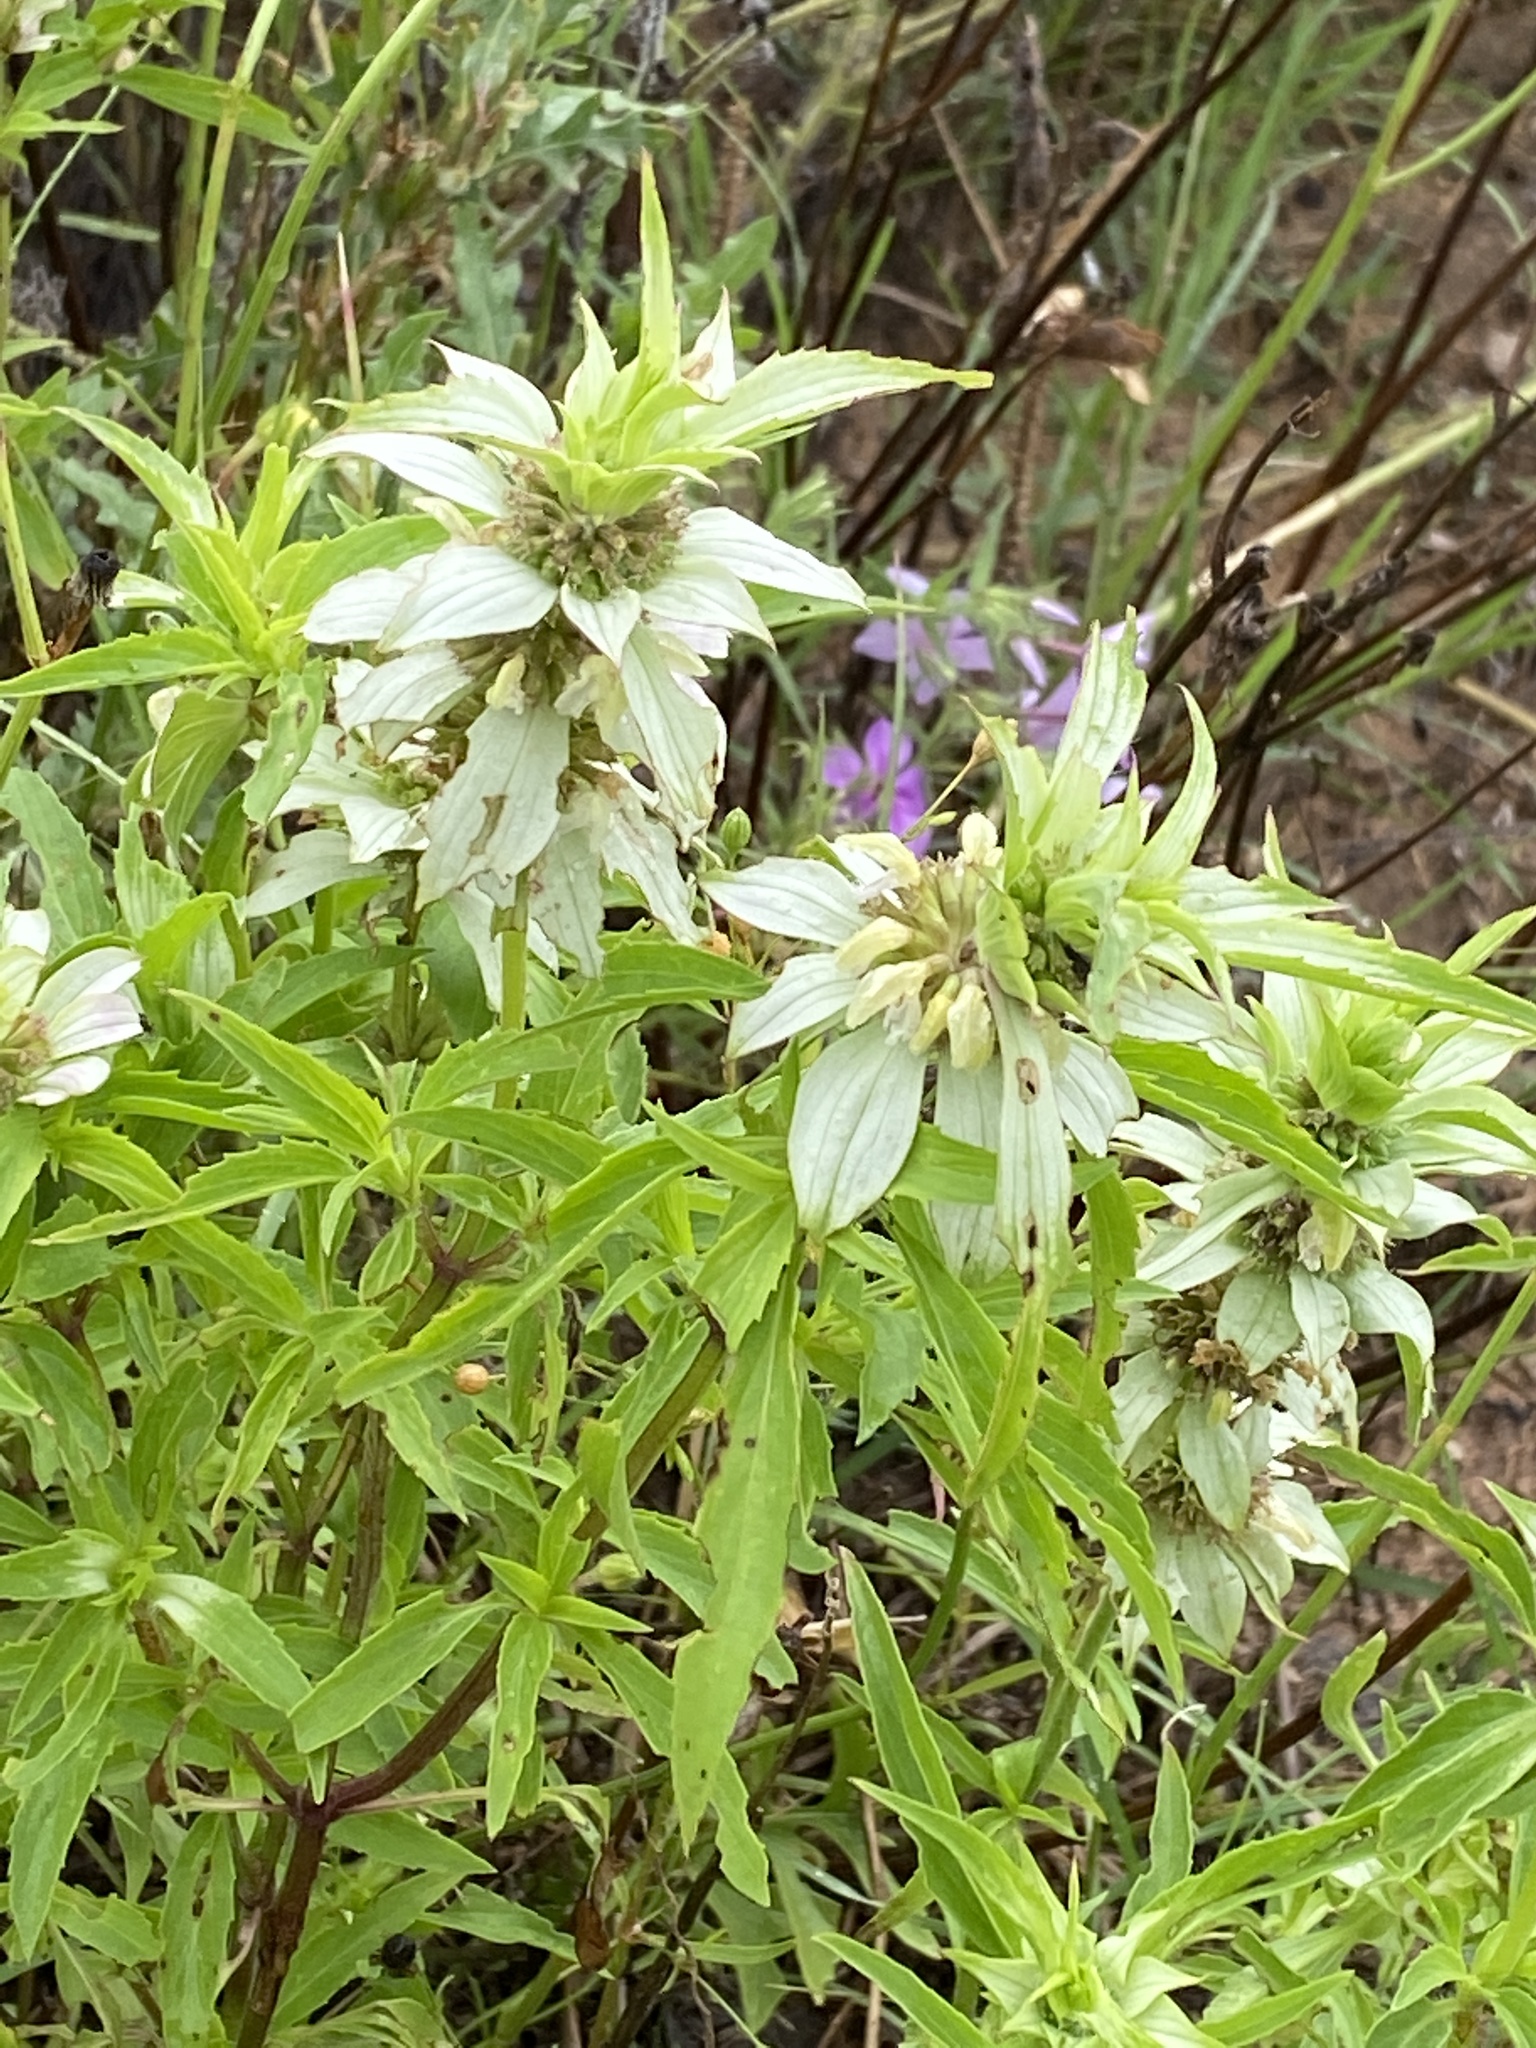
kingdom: Plantae
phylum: Tracheophyta
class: Magnoliopsida
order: Lamiales
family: Lamiaceae
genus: Monarda
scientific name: Monarda punctata
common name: Dotted monarda
